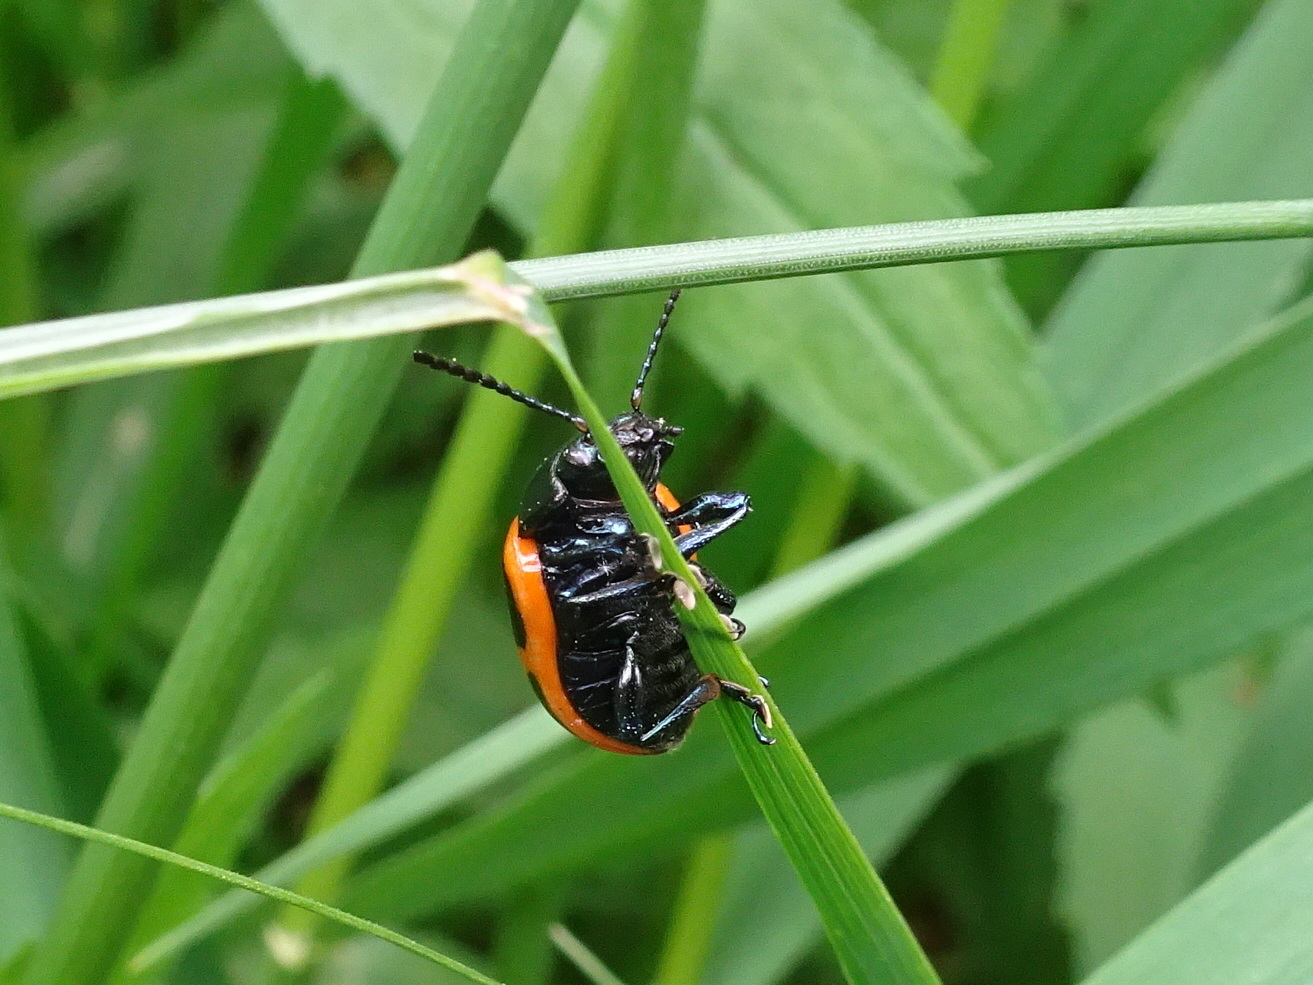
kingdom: Animalia
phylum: Arthropoda
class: Insecta
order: Coleoptera
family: Chrysomelidae
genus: Labidomera
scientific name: Labidomera clivicollis
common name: Swamp milkweed leaf beetle
